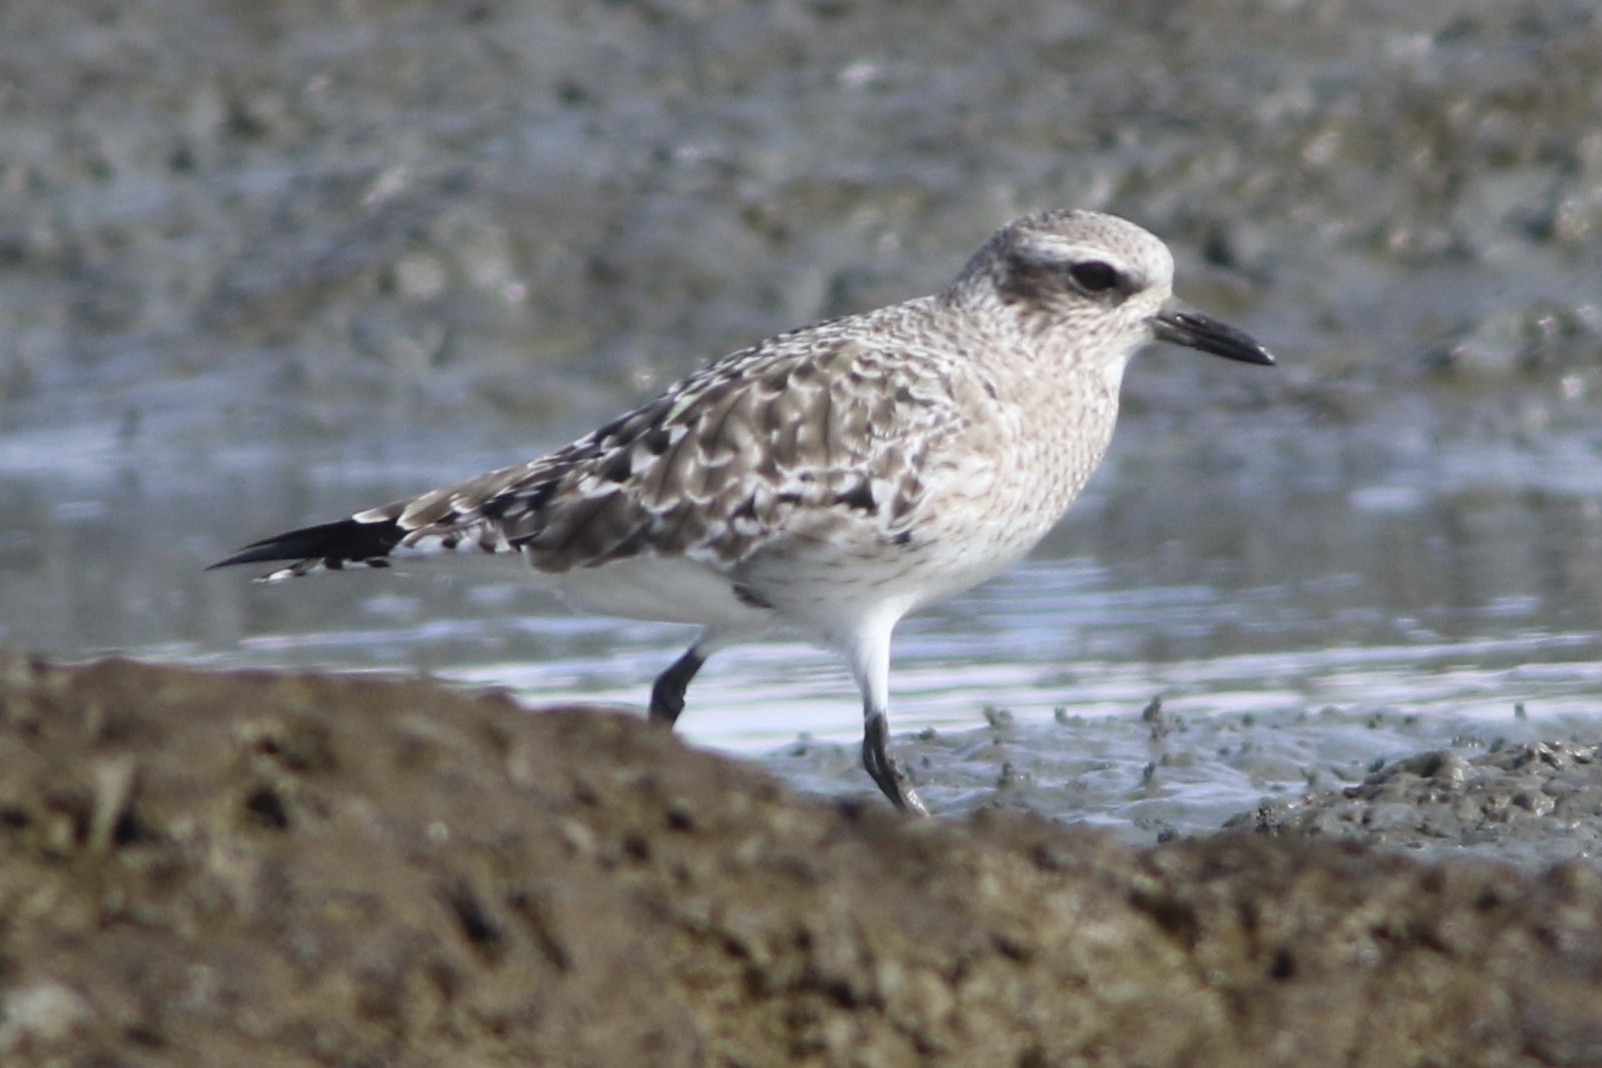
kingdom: Animalia
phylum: Chordata
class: Aves
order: Charadriiformes
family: Charadriidae
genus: Pluvialis
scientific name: Pluvialis squatarola
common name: Grey plover
